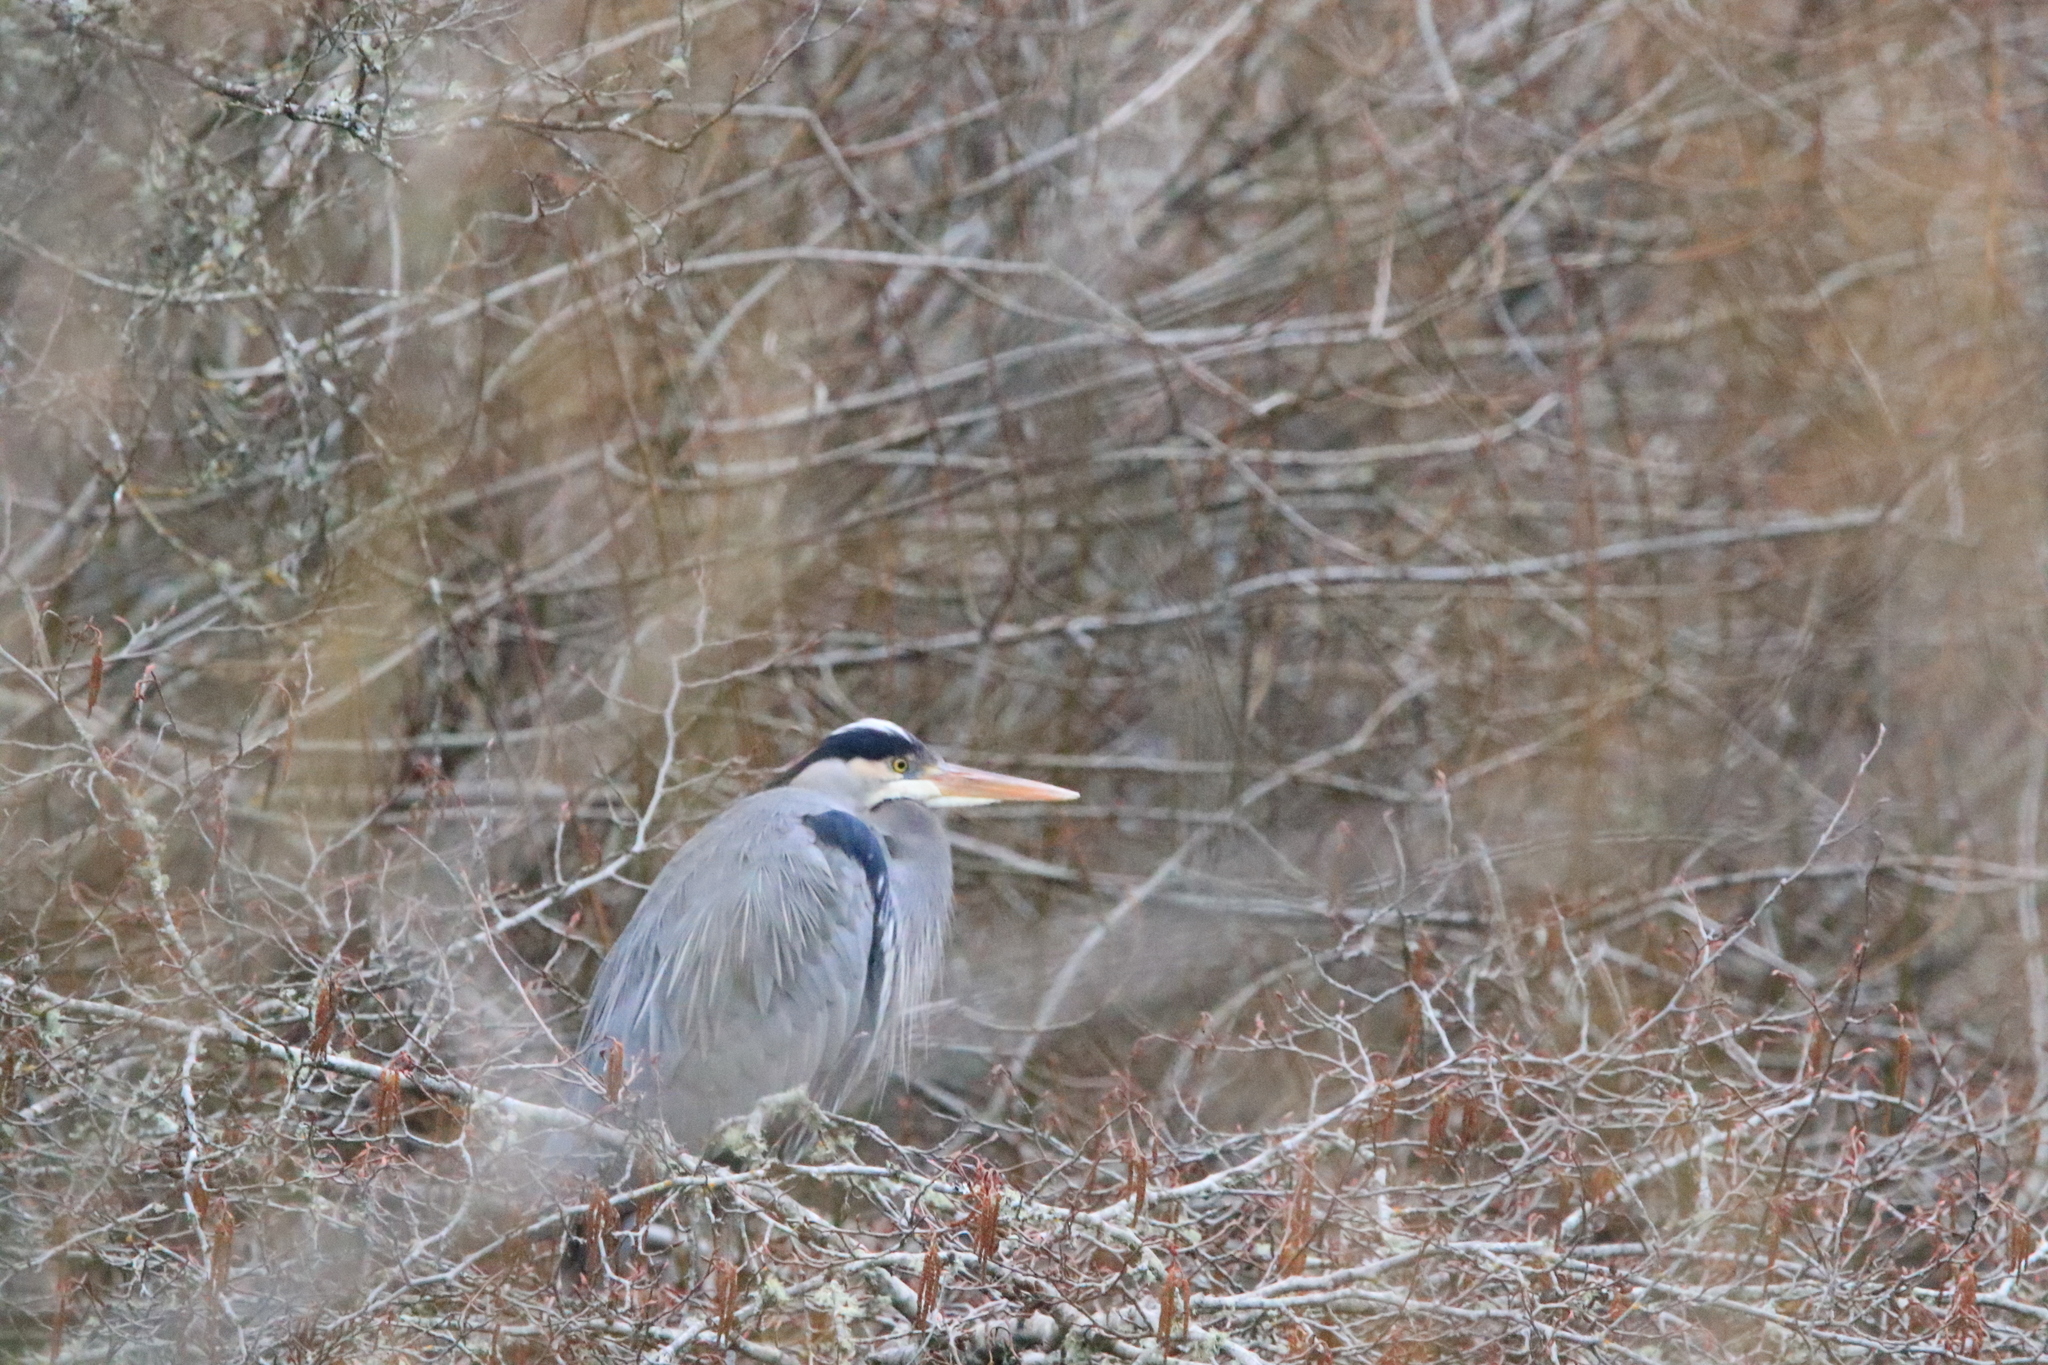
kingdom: Animalia
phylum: Chordata
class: Aves
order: Pelecaniformes
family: Ardeidae
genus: Ardea
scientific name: Ardea herodias
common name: Great blue heron
